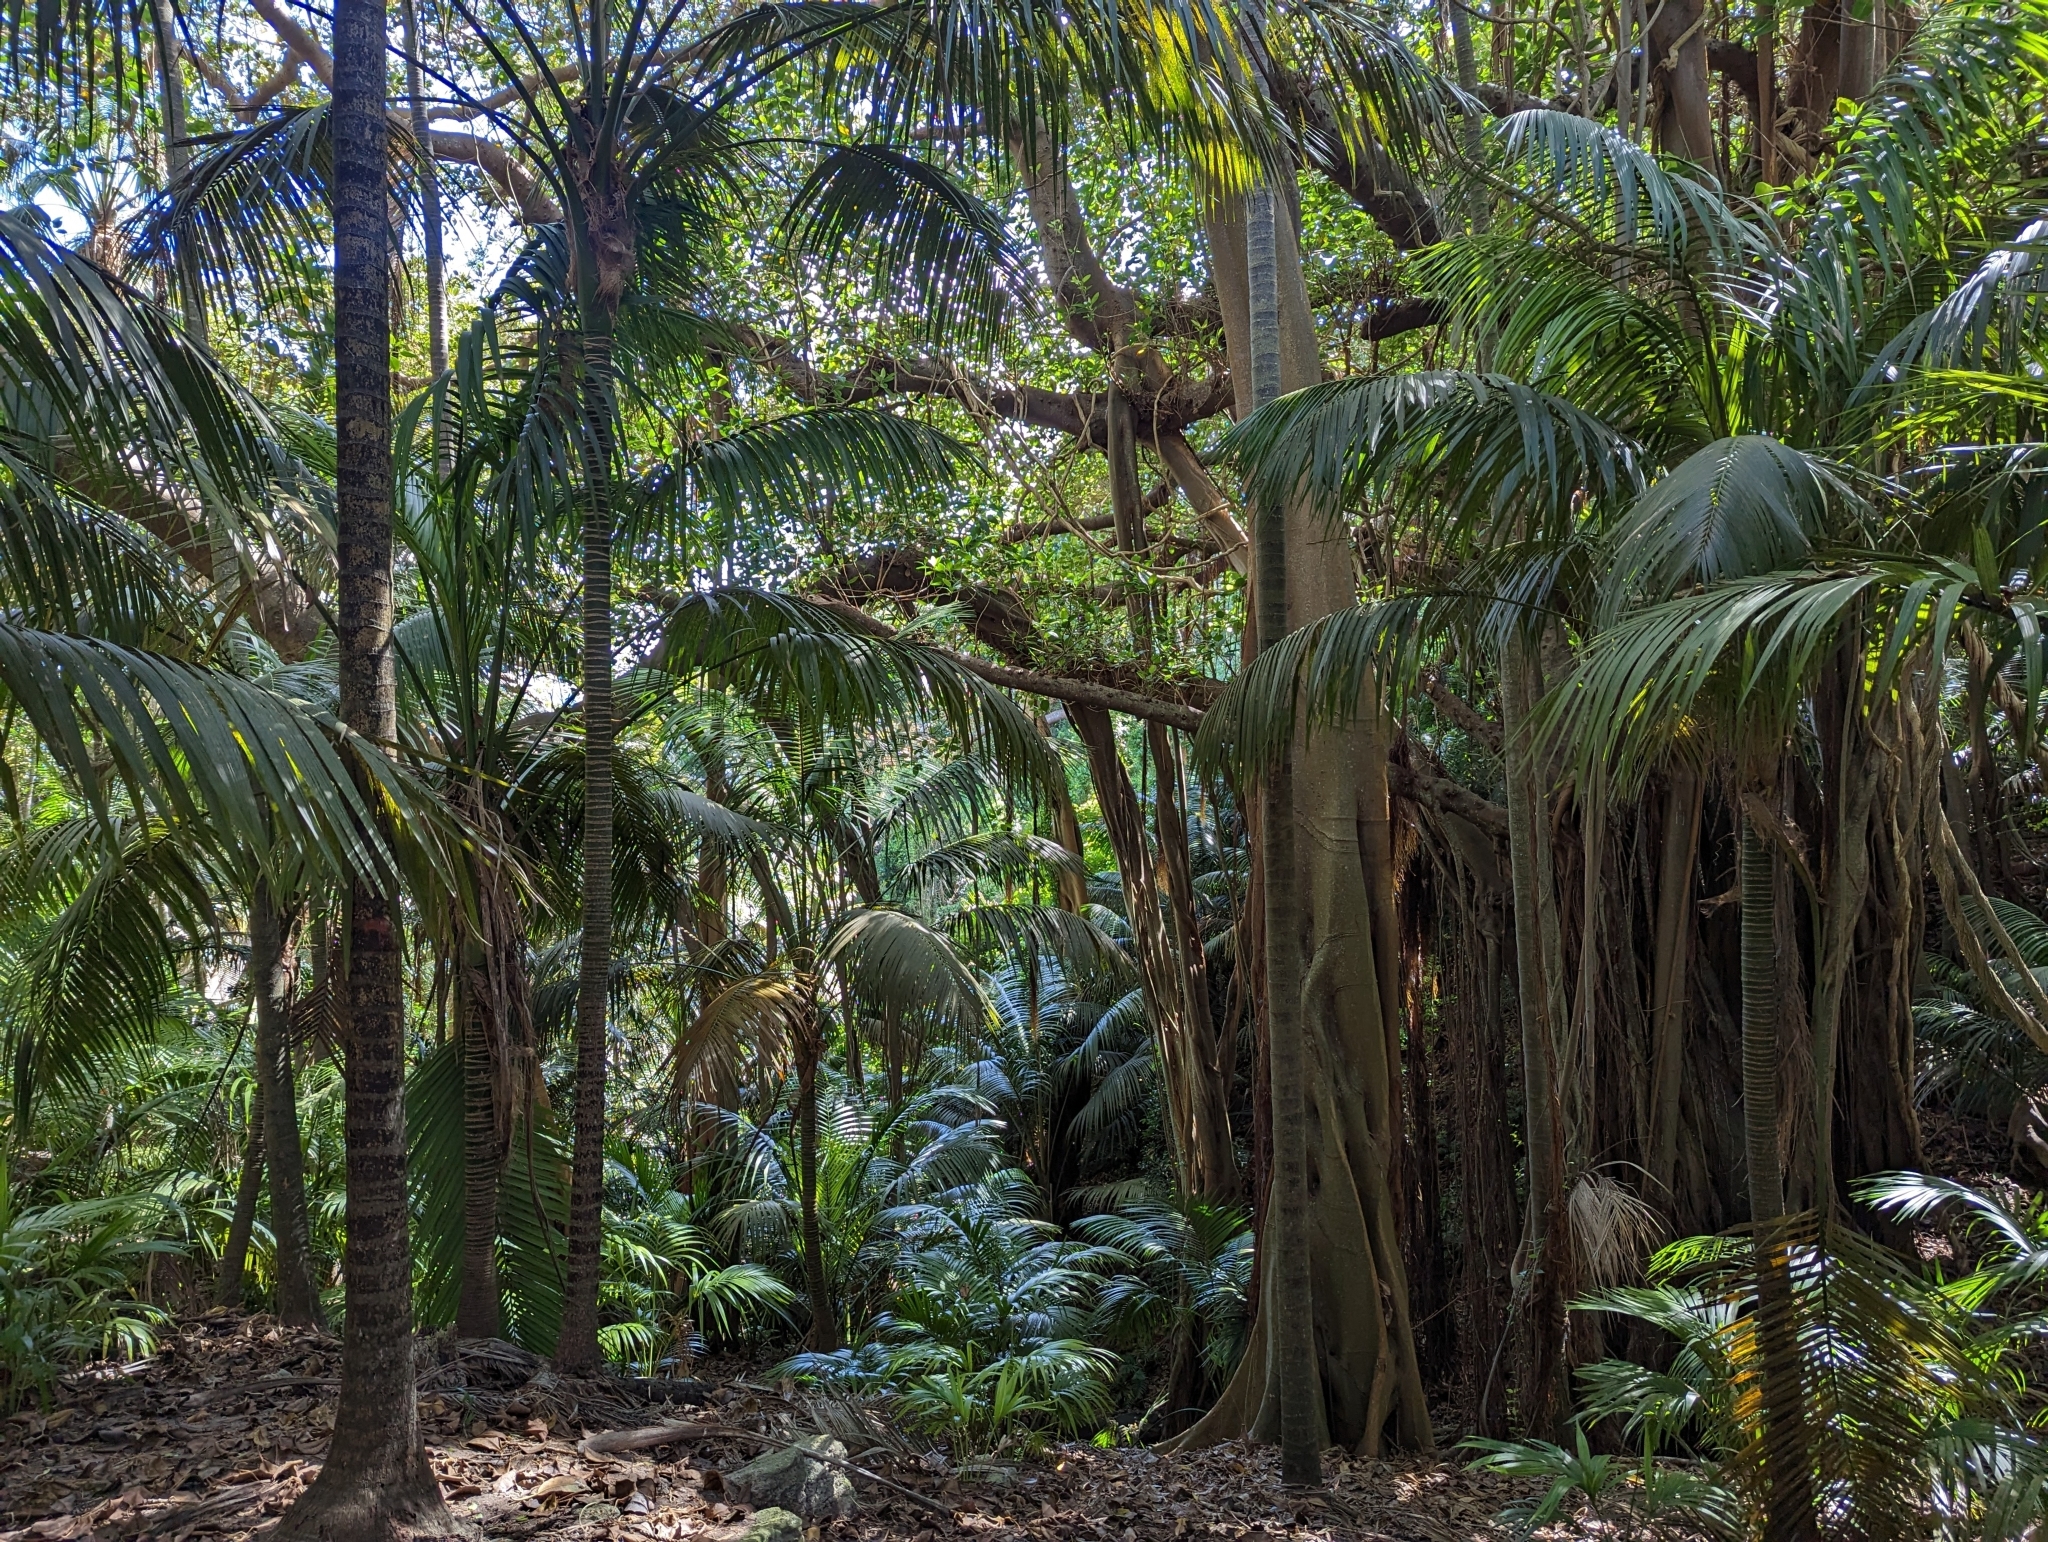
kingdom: Plantae
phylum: Tracheophyta
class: Magnoliopsida
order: Rosales
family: Moraceae
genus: Ficus
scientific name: Ficus macrophylla
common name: Moreton bay fig
